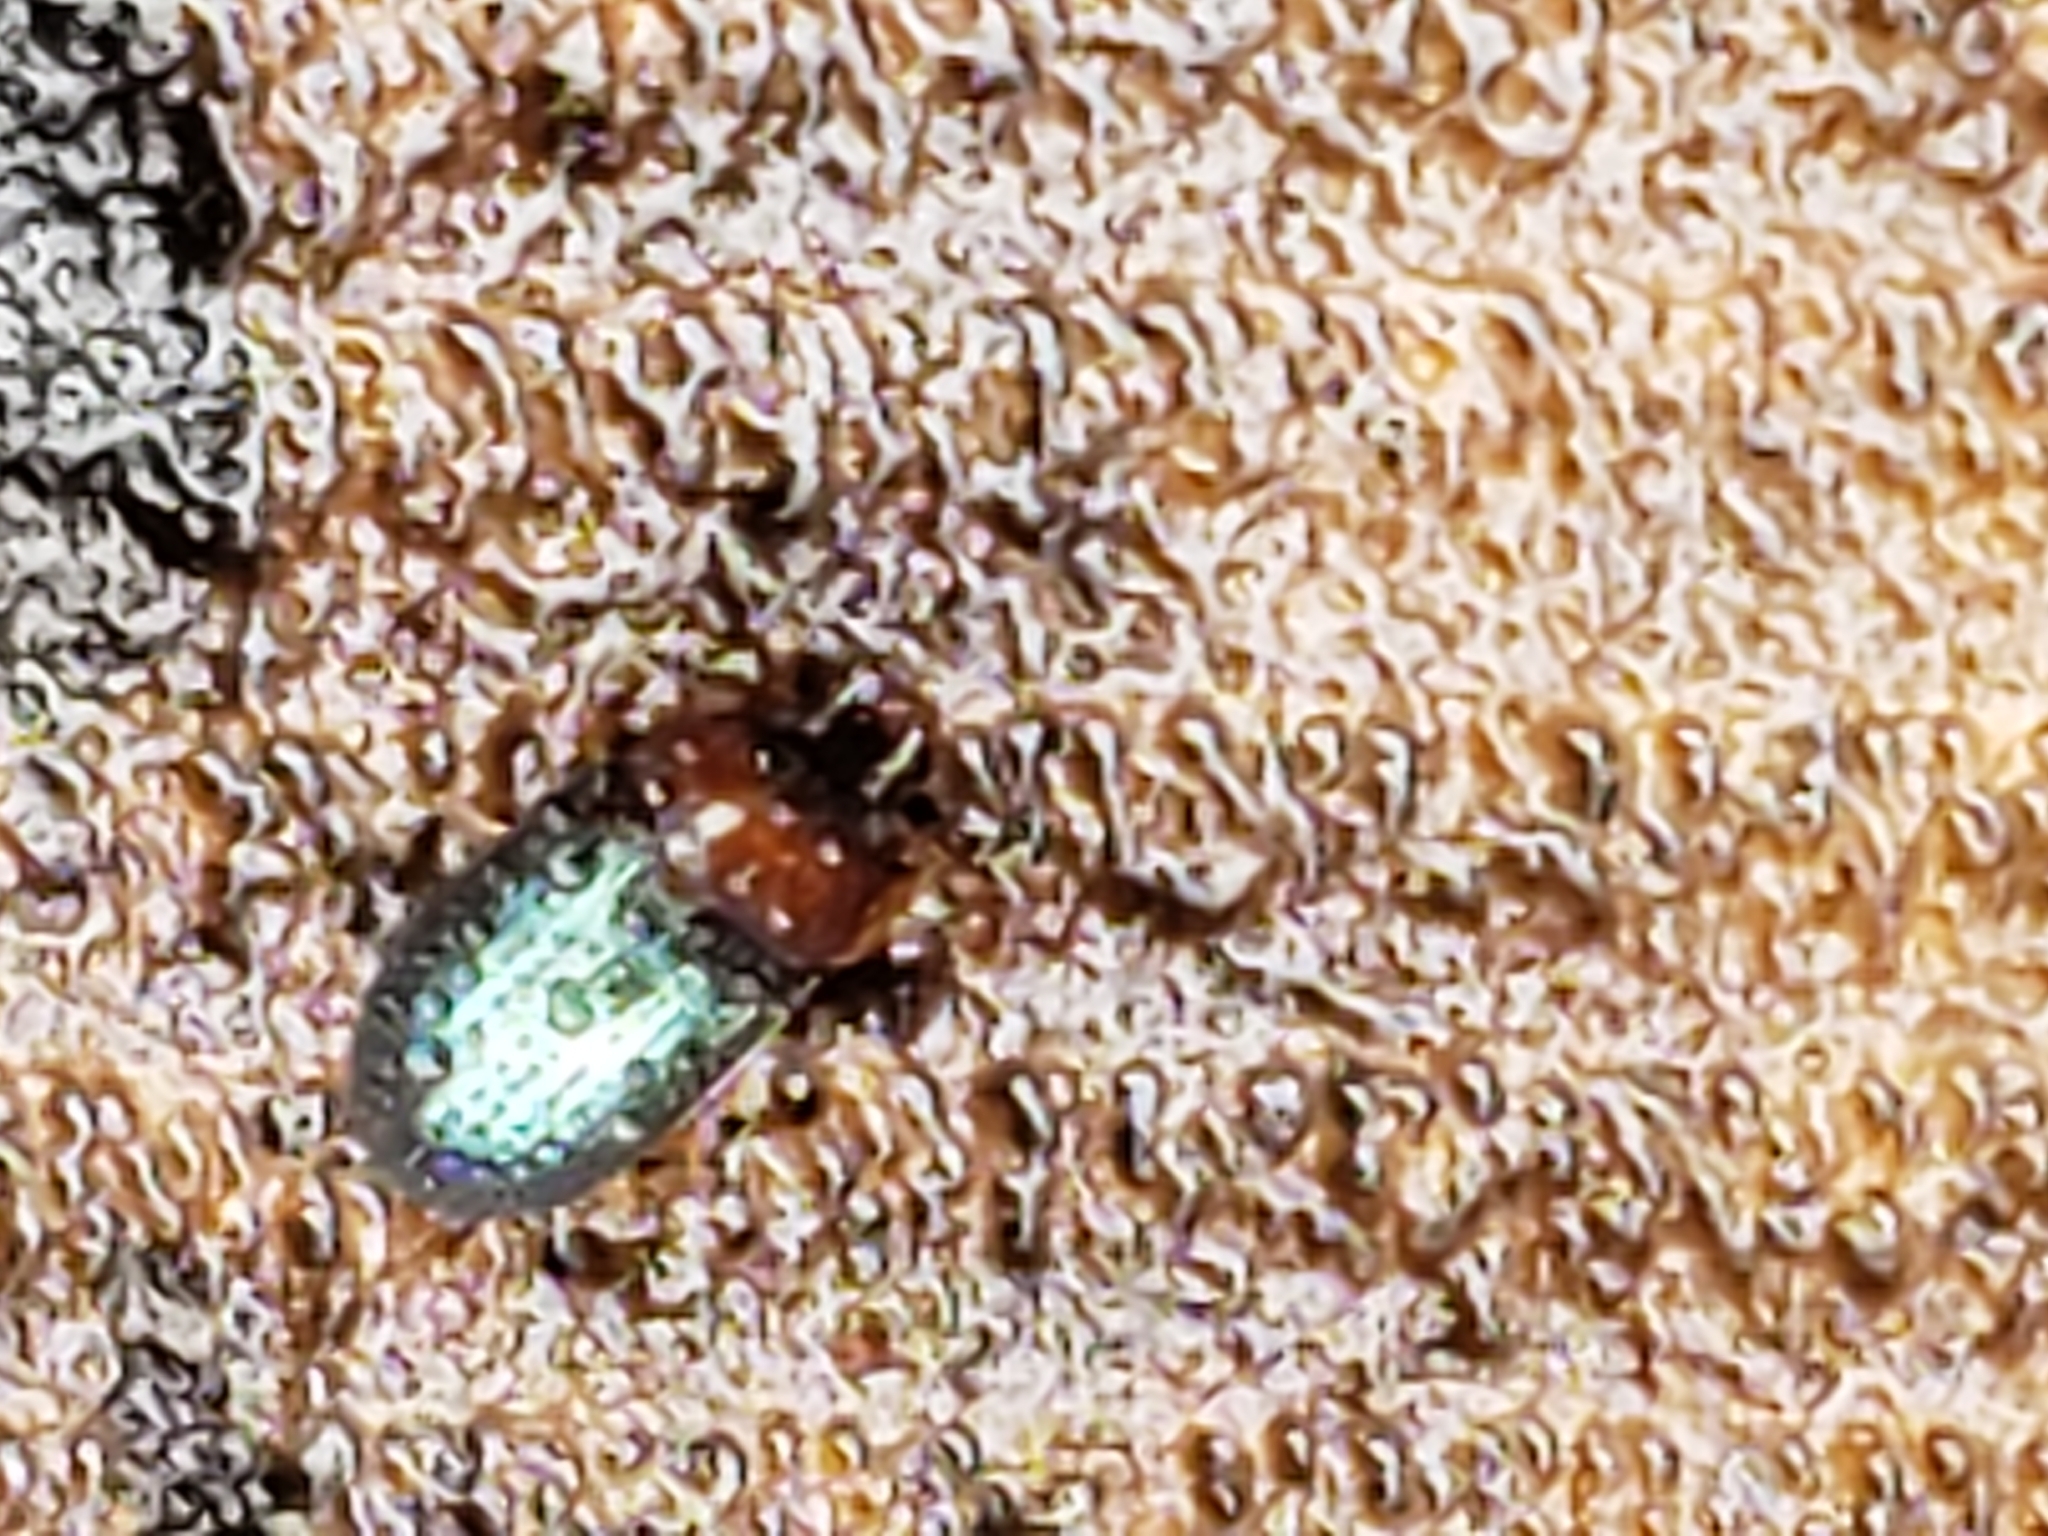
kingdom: Animalia
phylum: Arthropoda
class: Insecta
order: Coleoptera
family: Tenebrionidae
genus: Neomida
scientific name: Neomida bicornis
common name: Two-horned darkling beetle
